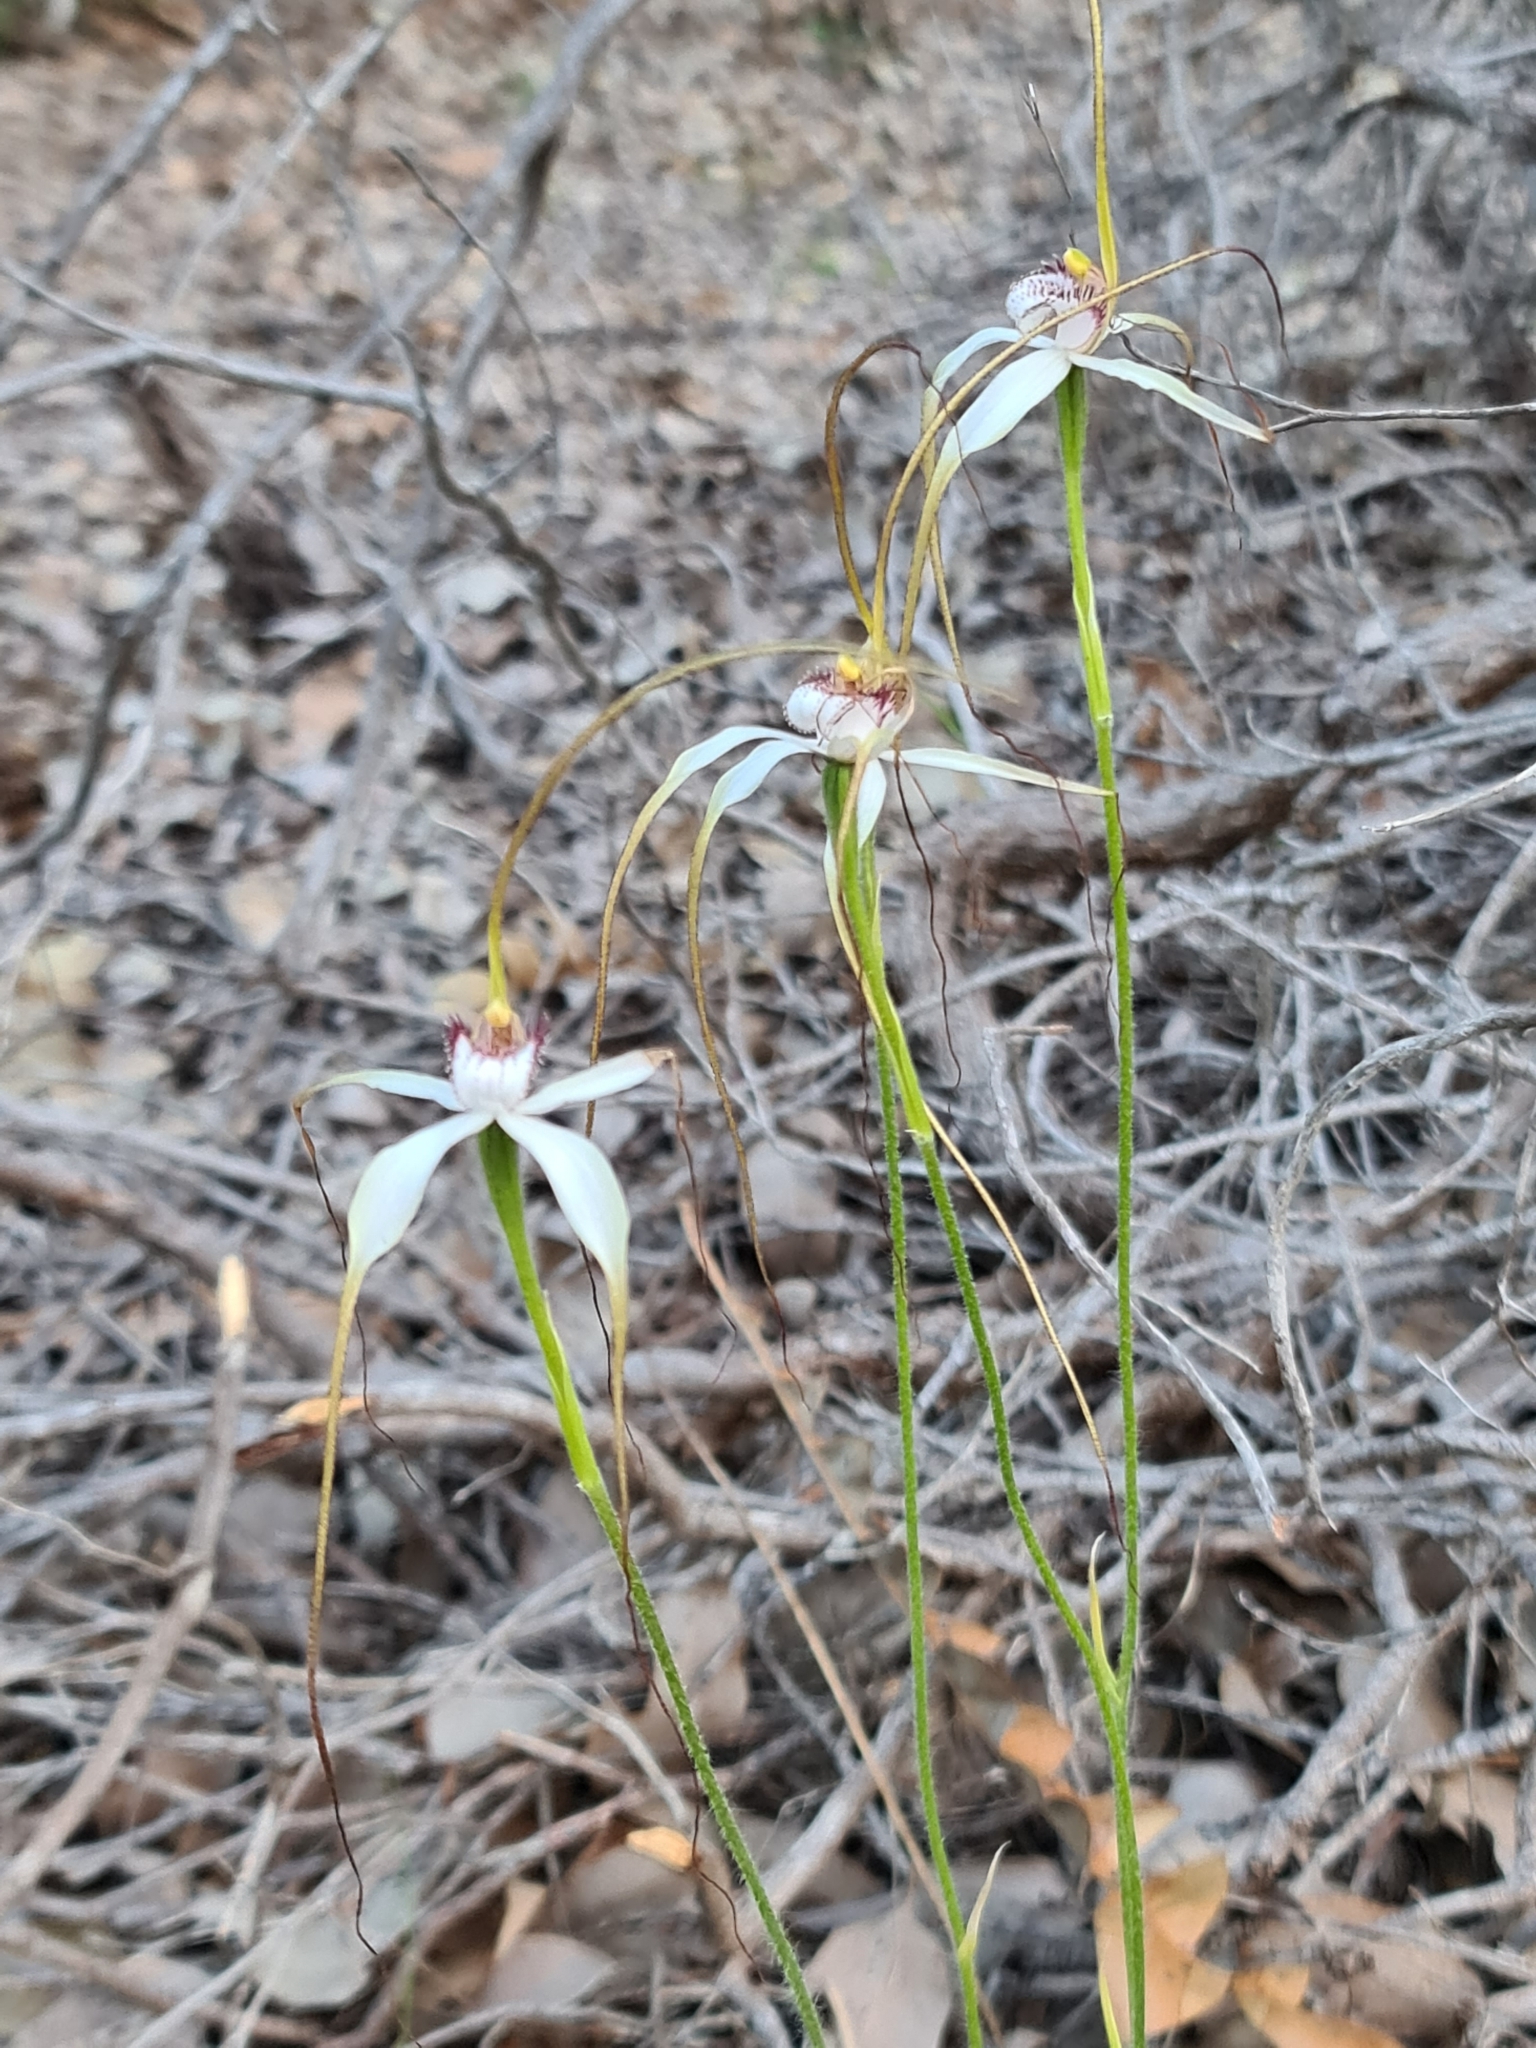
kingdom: Plantae
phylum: Tracheophyta
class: Liliopsida
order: Asparagales
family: Orchidaceae
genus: Caladenia
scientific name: Caladenia longicauda
